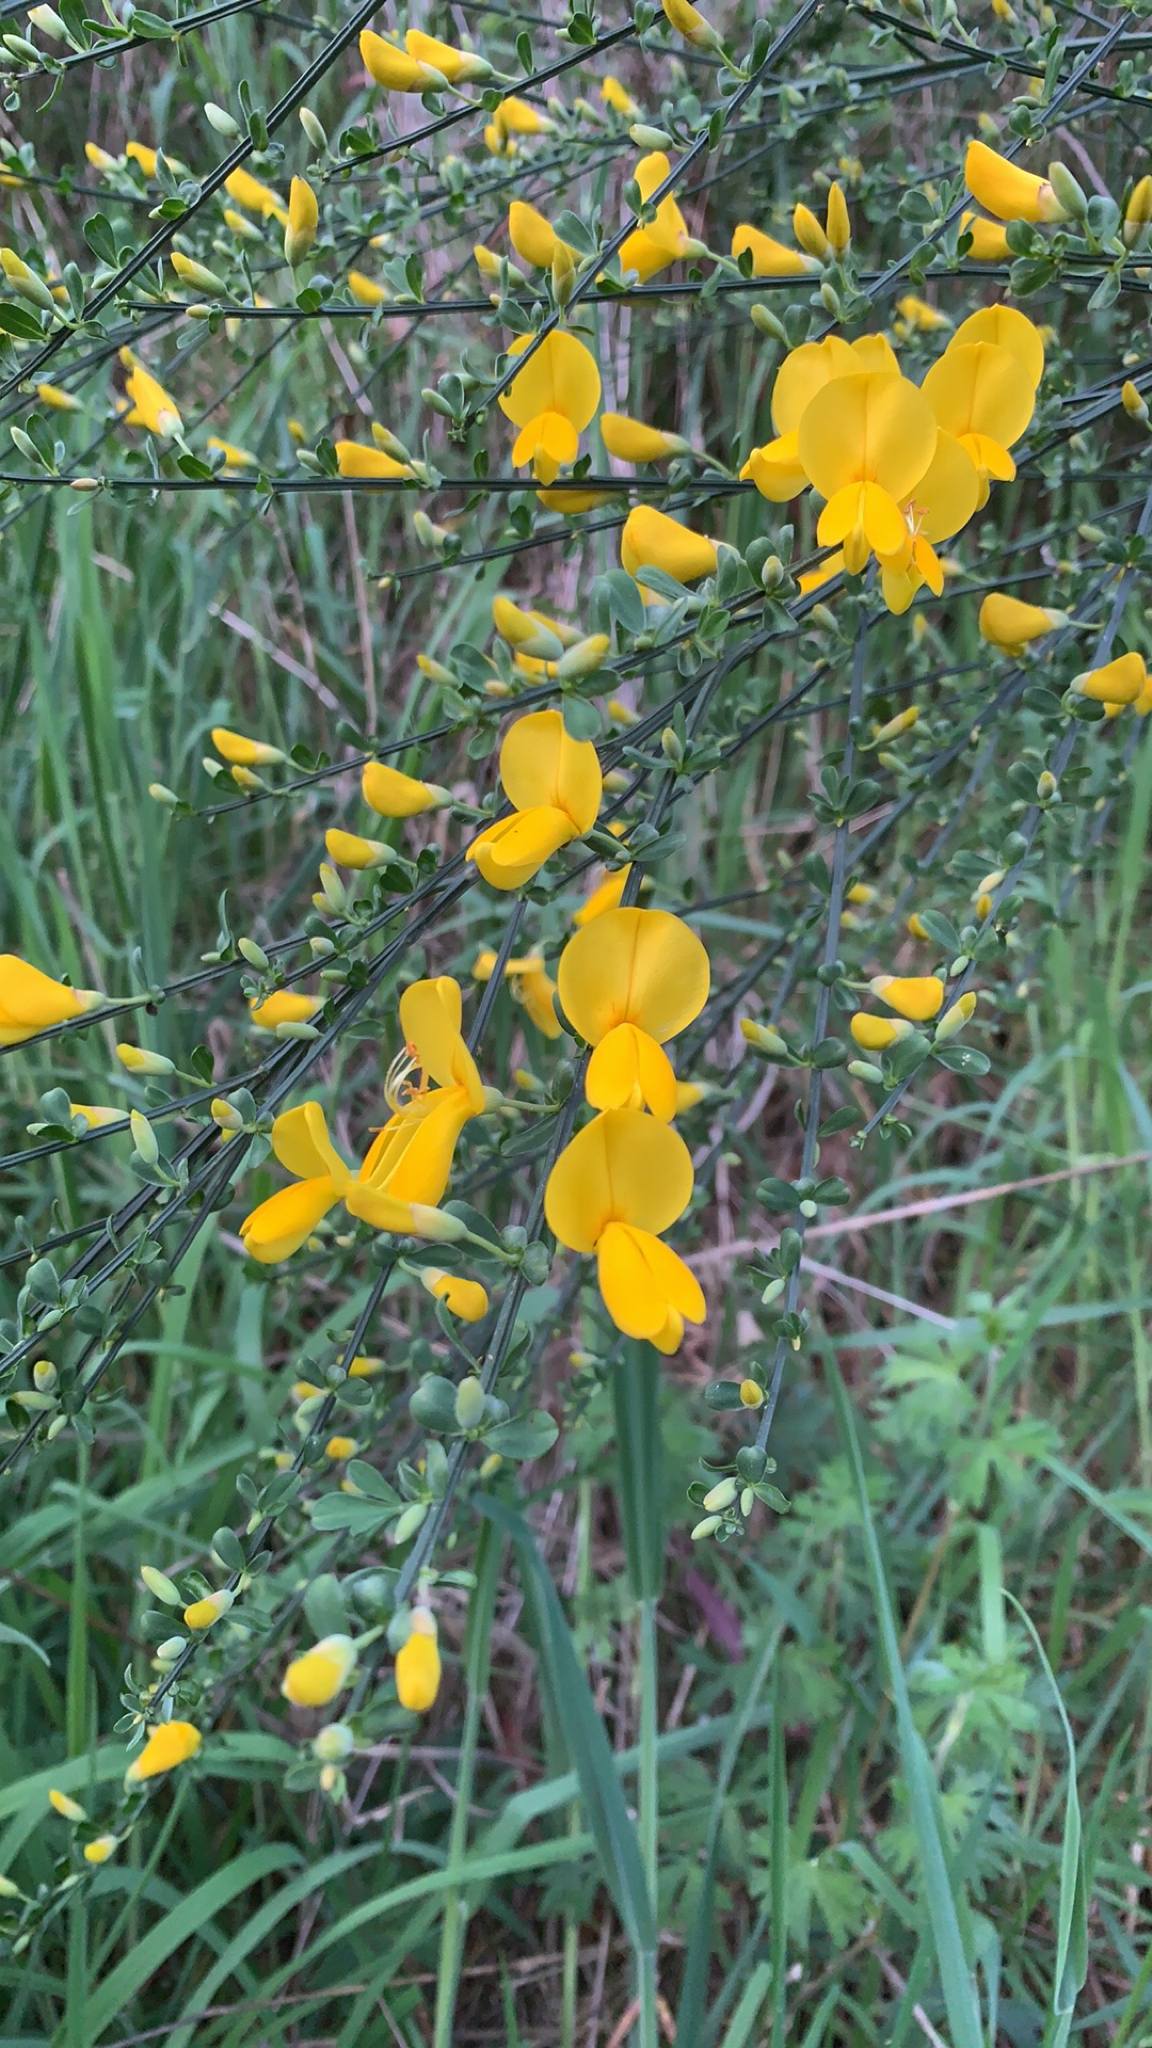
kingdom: Plantae
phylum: Tracheophyta
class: Magnoliopsida
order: Fabales
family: Fabaceae
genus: Cytisus
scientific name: Cytisus scoparius
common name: Scotch broom
